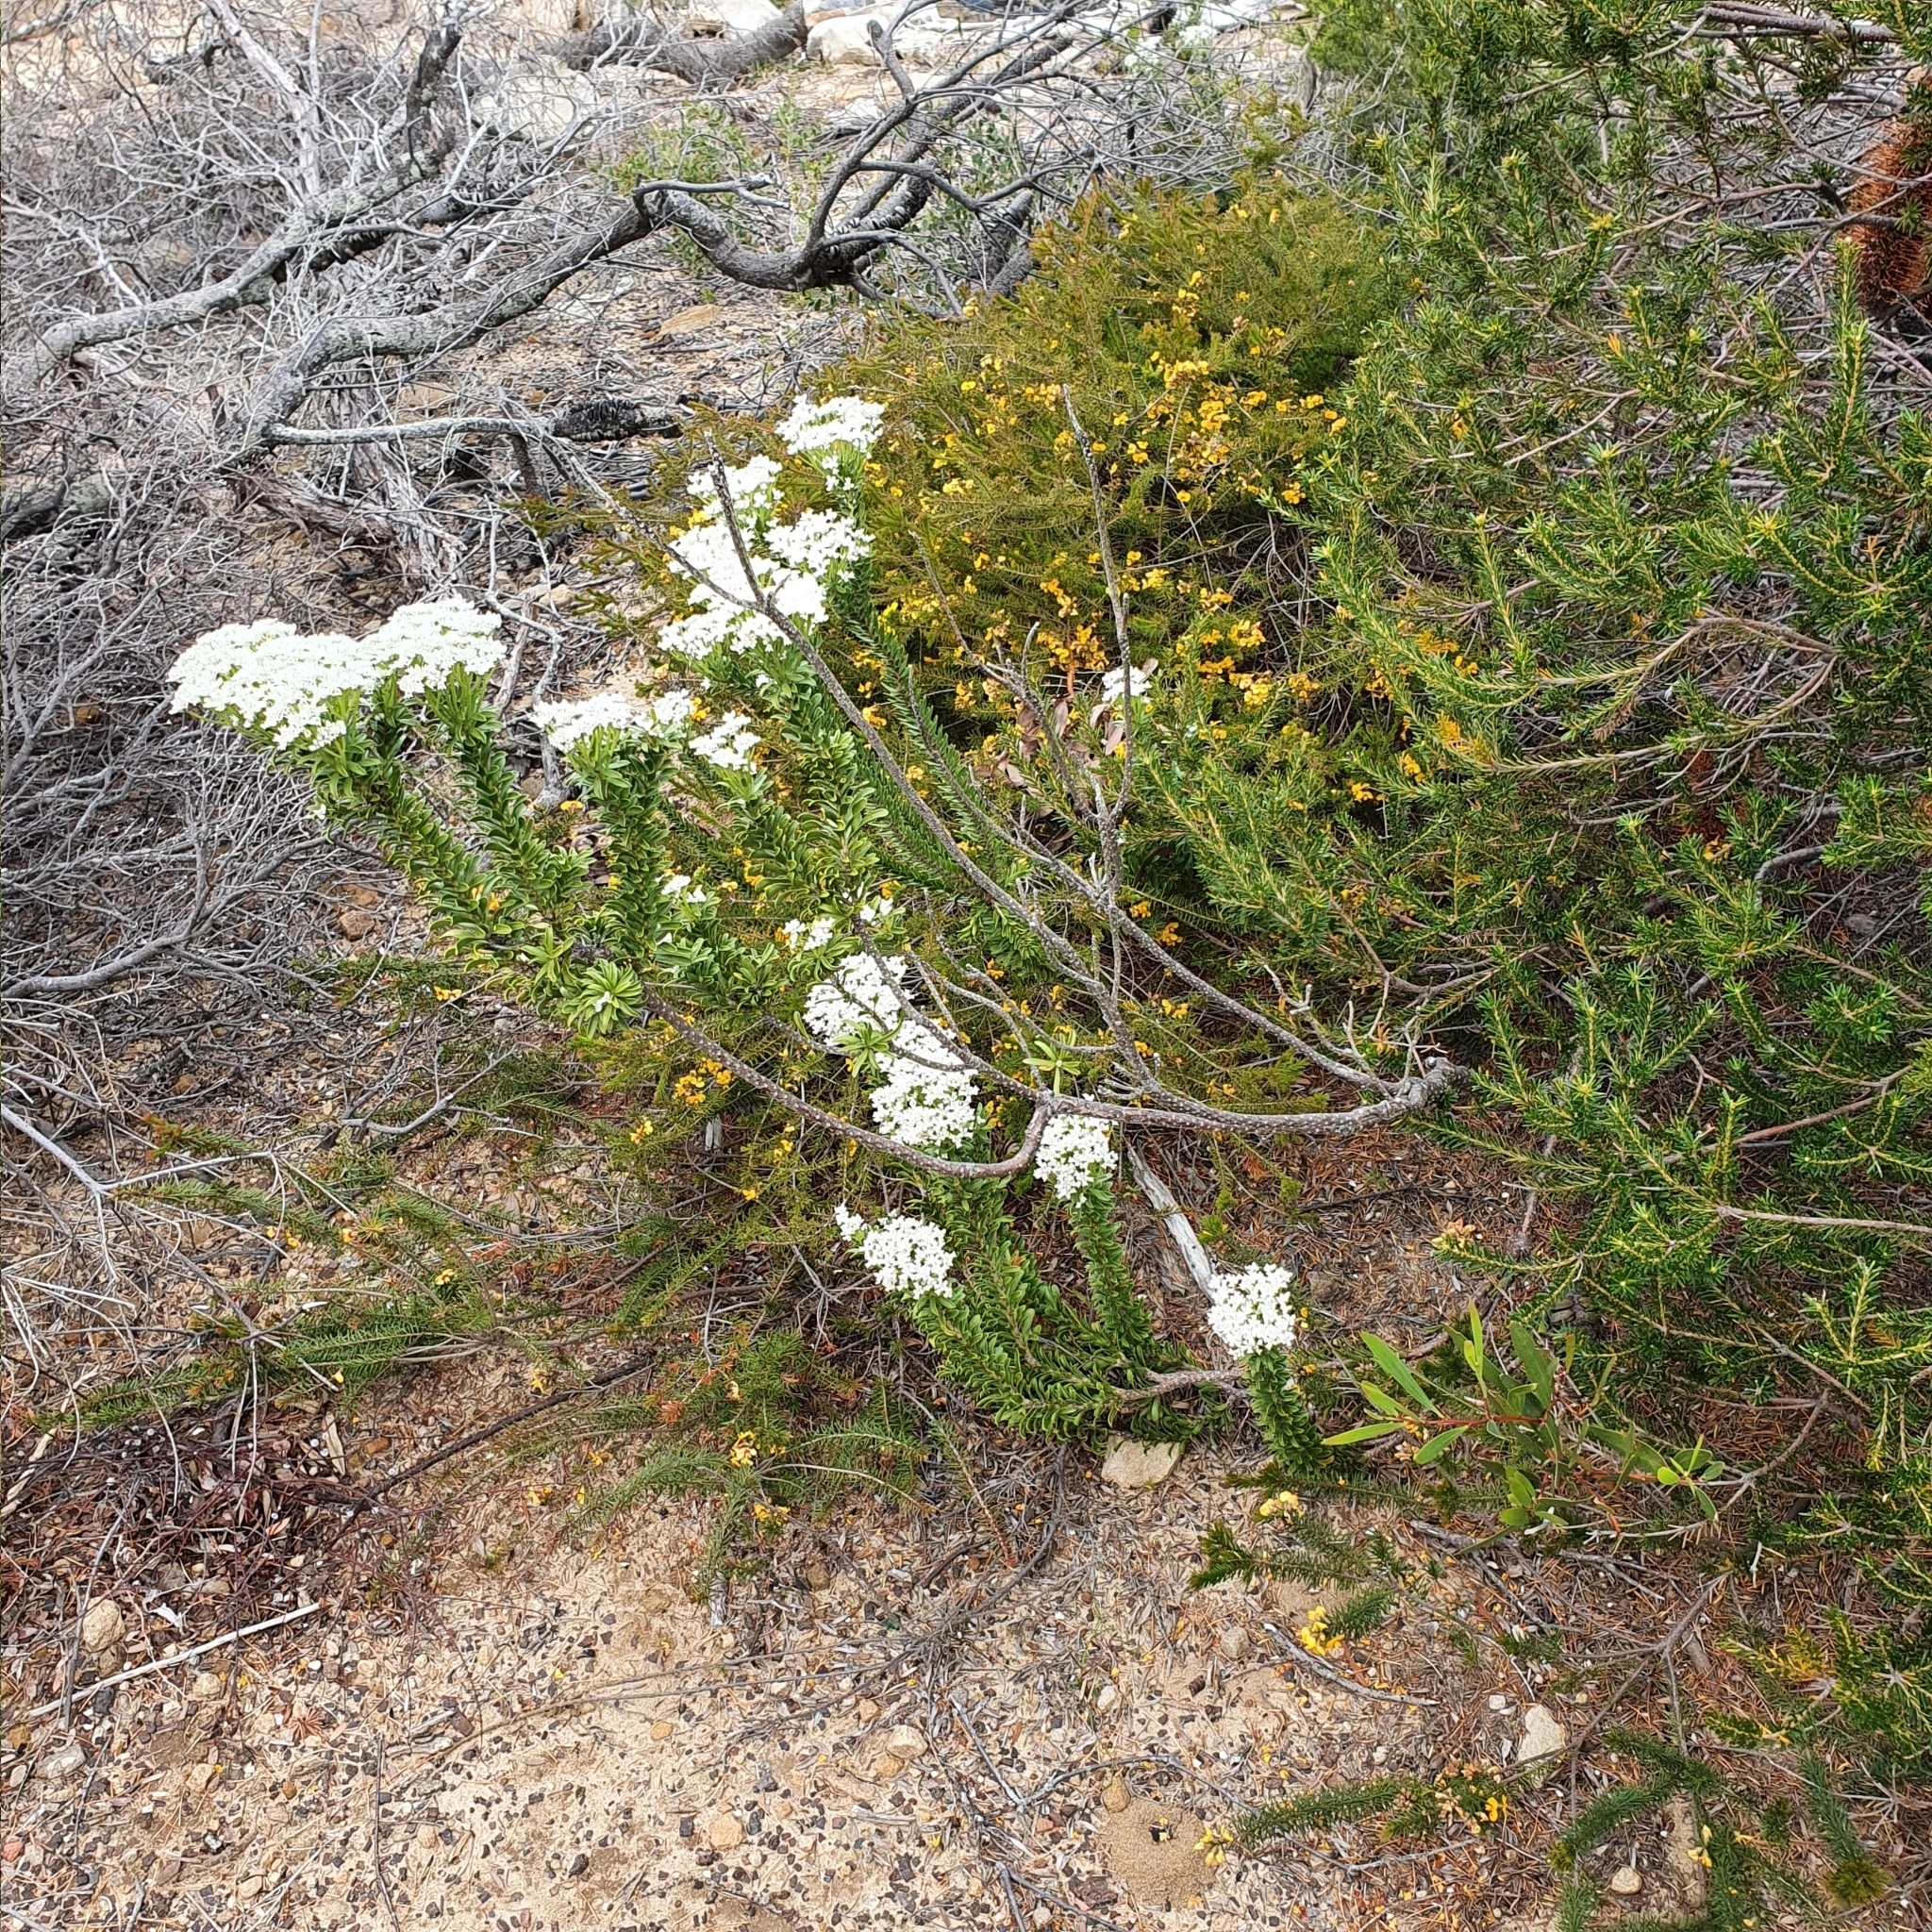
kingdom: Plantae
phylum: Tracheophyta
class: Magnoliopsida
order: Proteales
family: Proteaceae
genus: Conospermum
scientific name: Conospermum ellipticum
